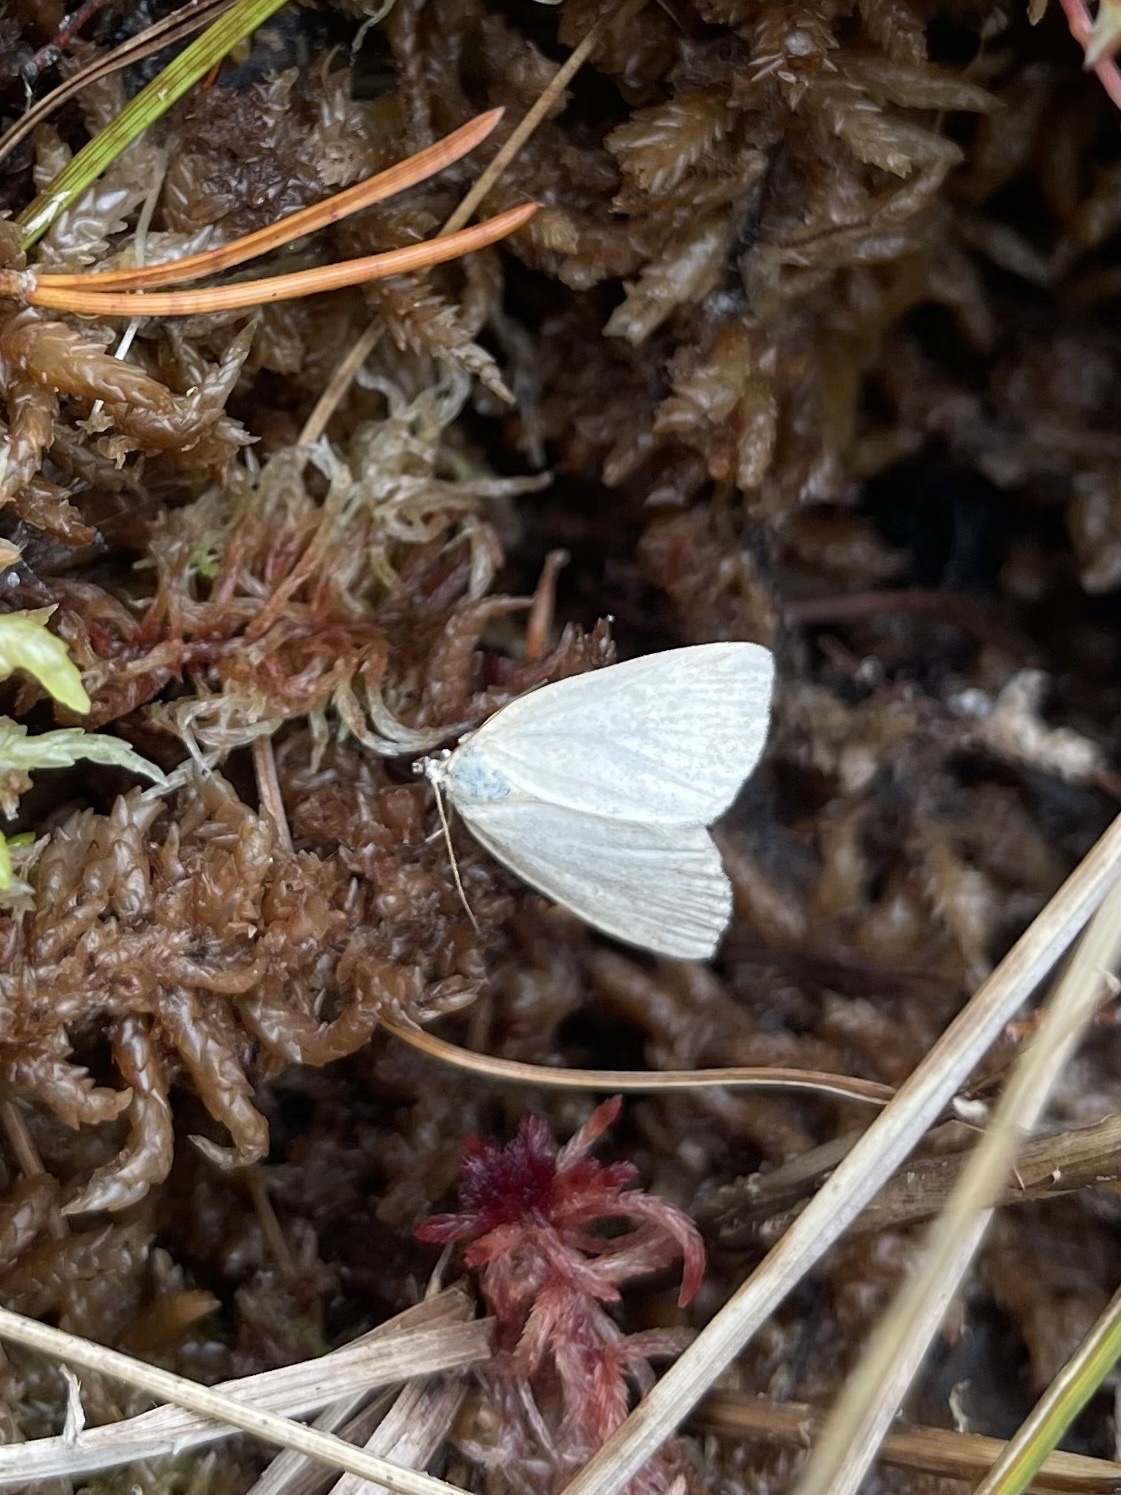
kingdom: Animalia
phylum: Arthropoda
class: Insecta
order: Lepidoptera
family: Noctuidae
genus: Protodeltote
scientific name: Protodeltote albidula
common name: Pale glyph
